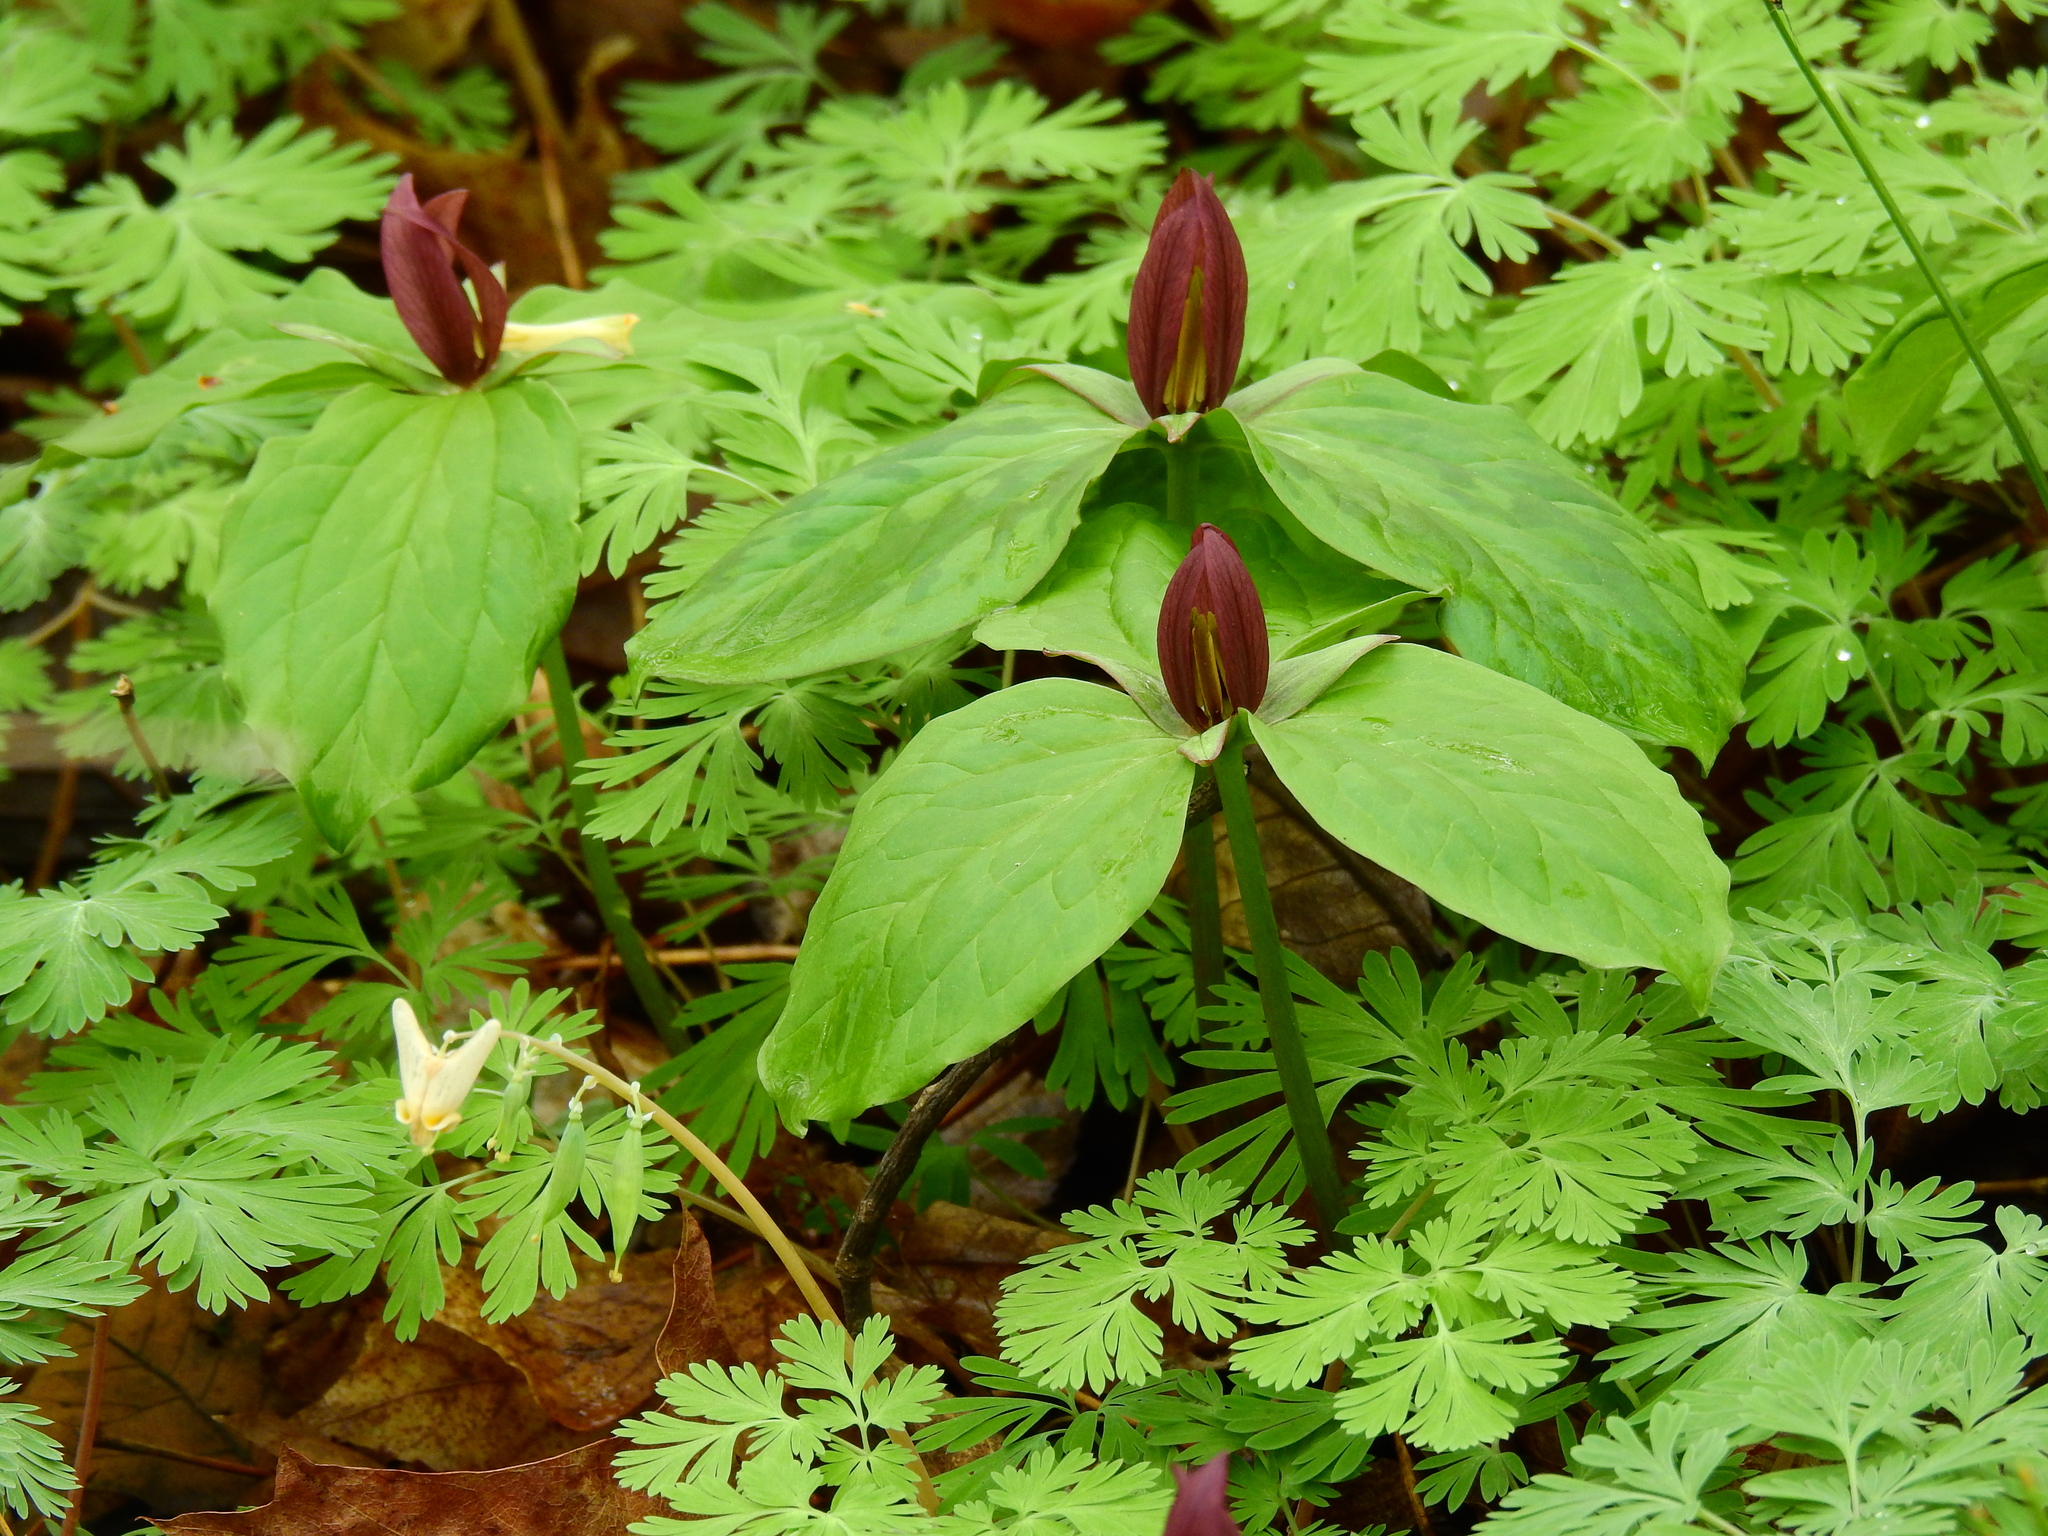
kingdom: Plantae
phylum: Tracheophyta
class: Liliopsida
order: Liliales
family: Melanthiaceae
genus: Trillium
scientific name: Trillium sessile
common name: Sessile trillium
